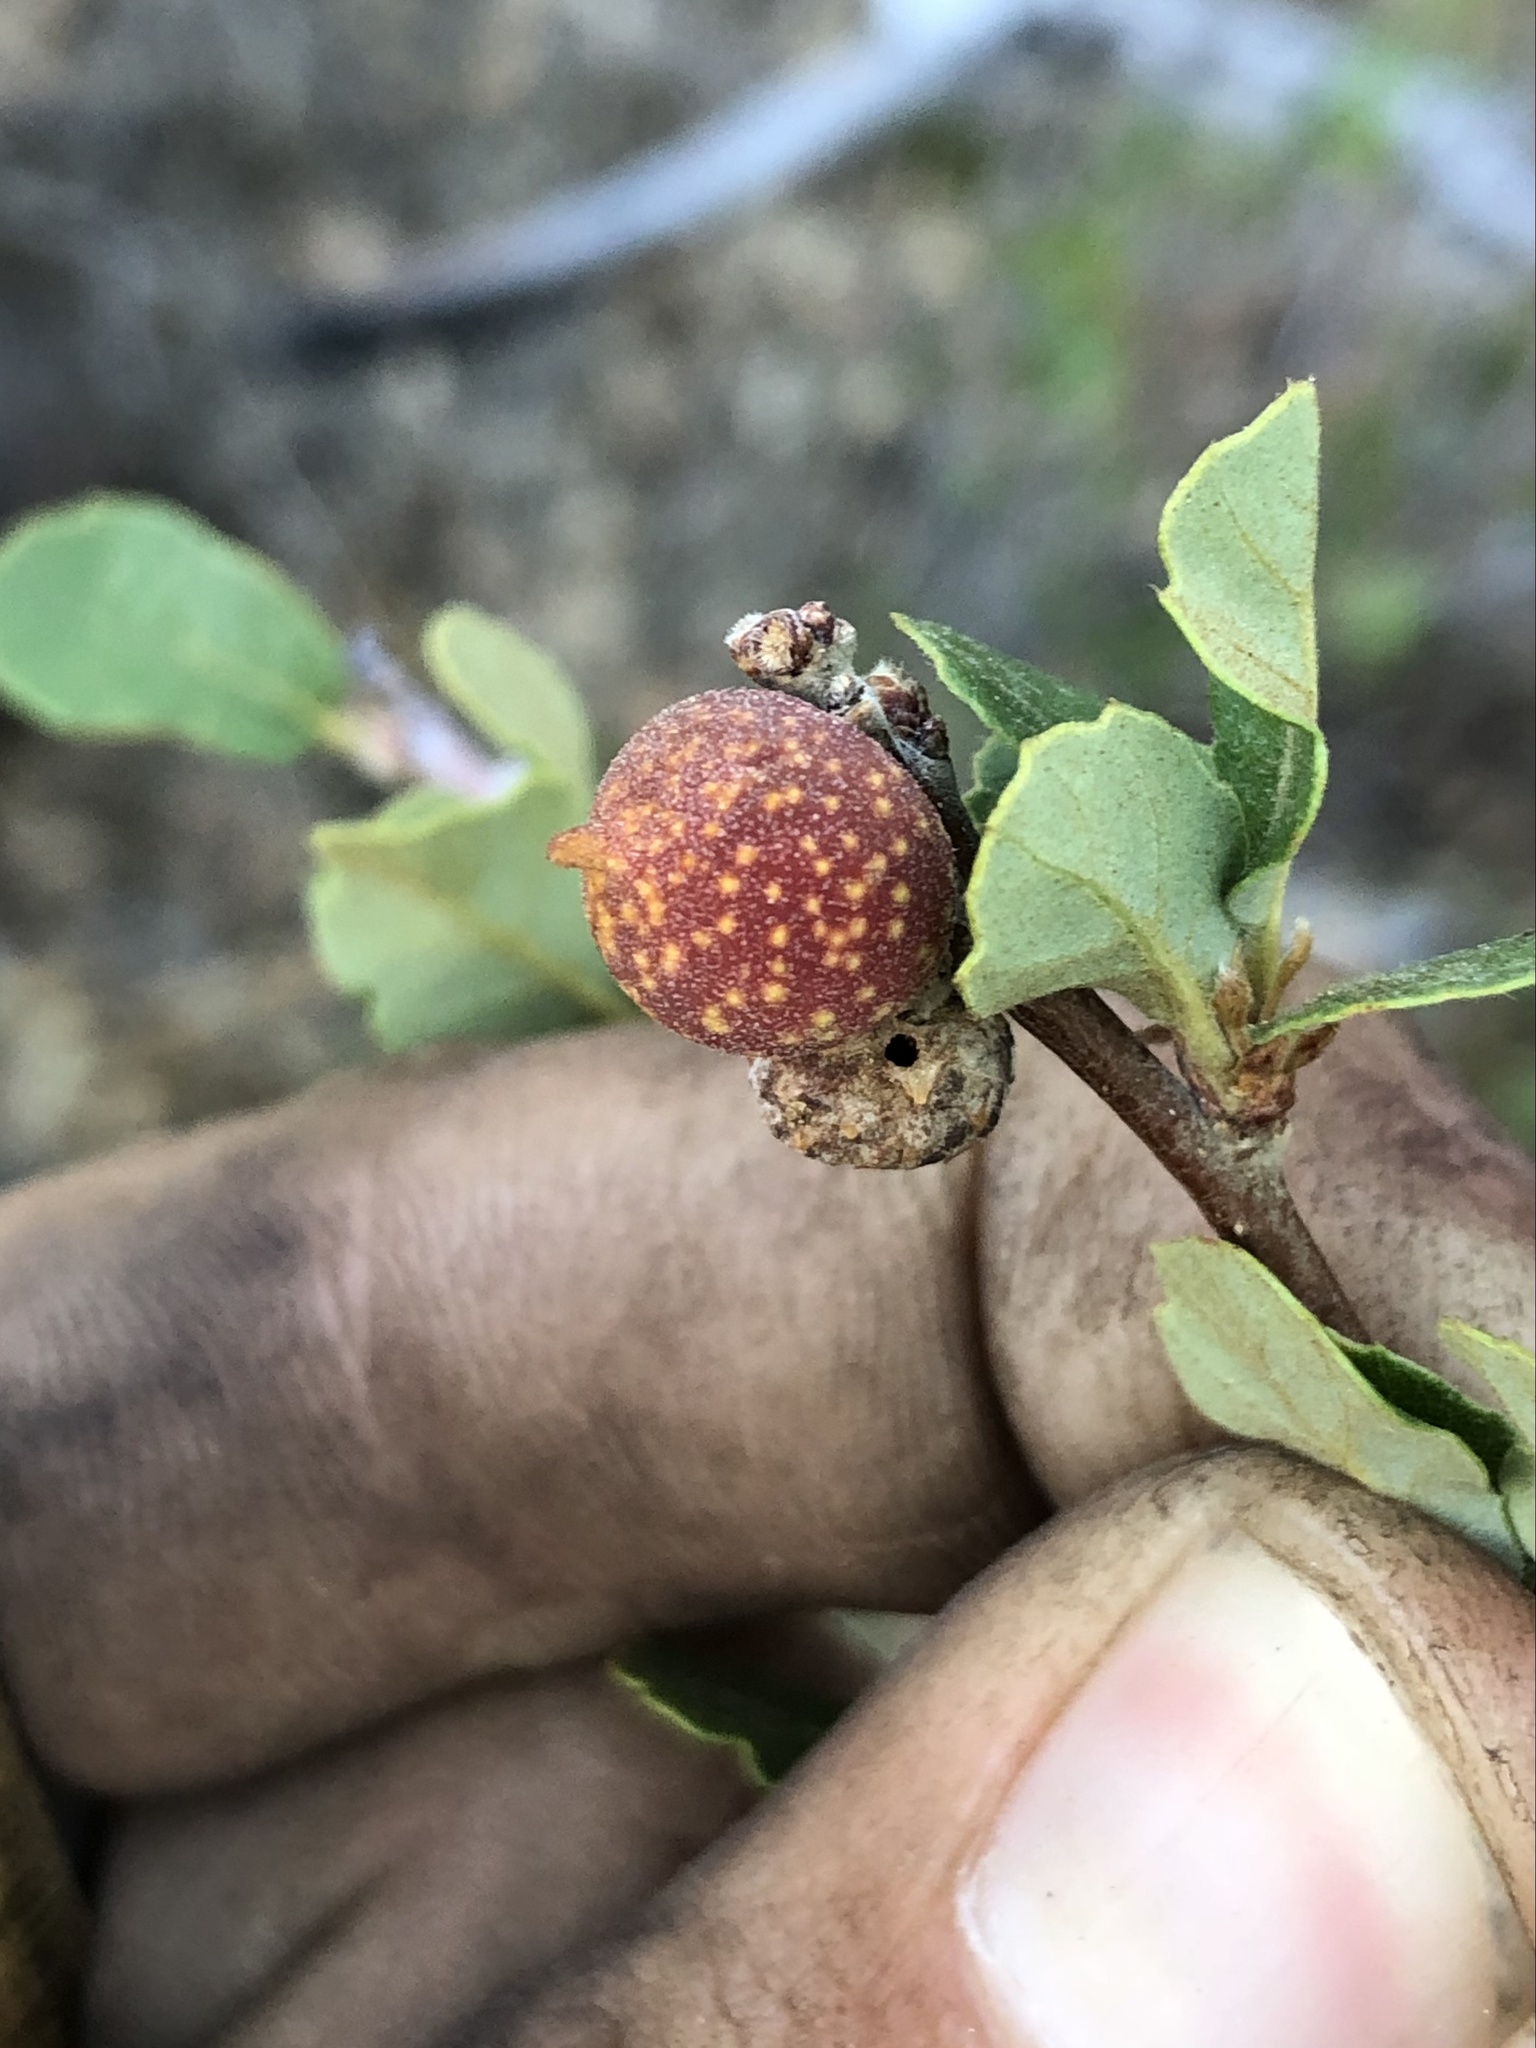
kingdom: Animalia
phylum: Arthropoda
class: Insecta
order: Hymenoptera
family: Cynipidae
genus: Burnettweldia
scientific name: Burnettweldia
